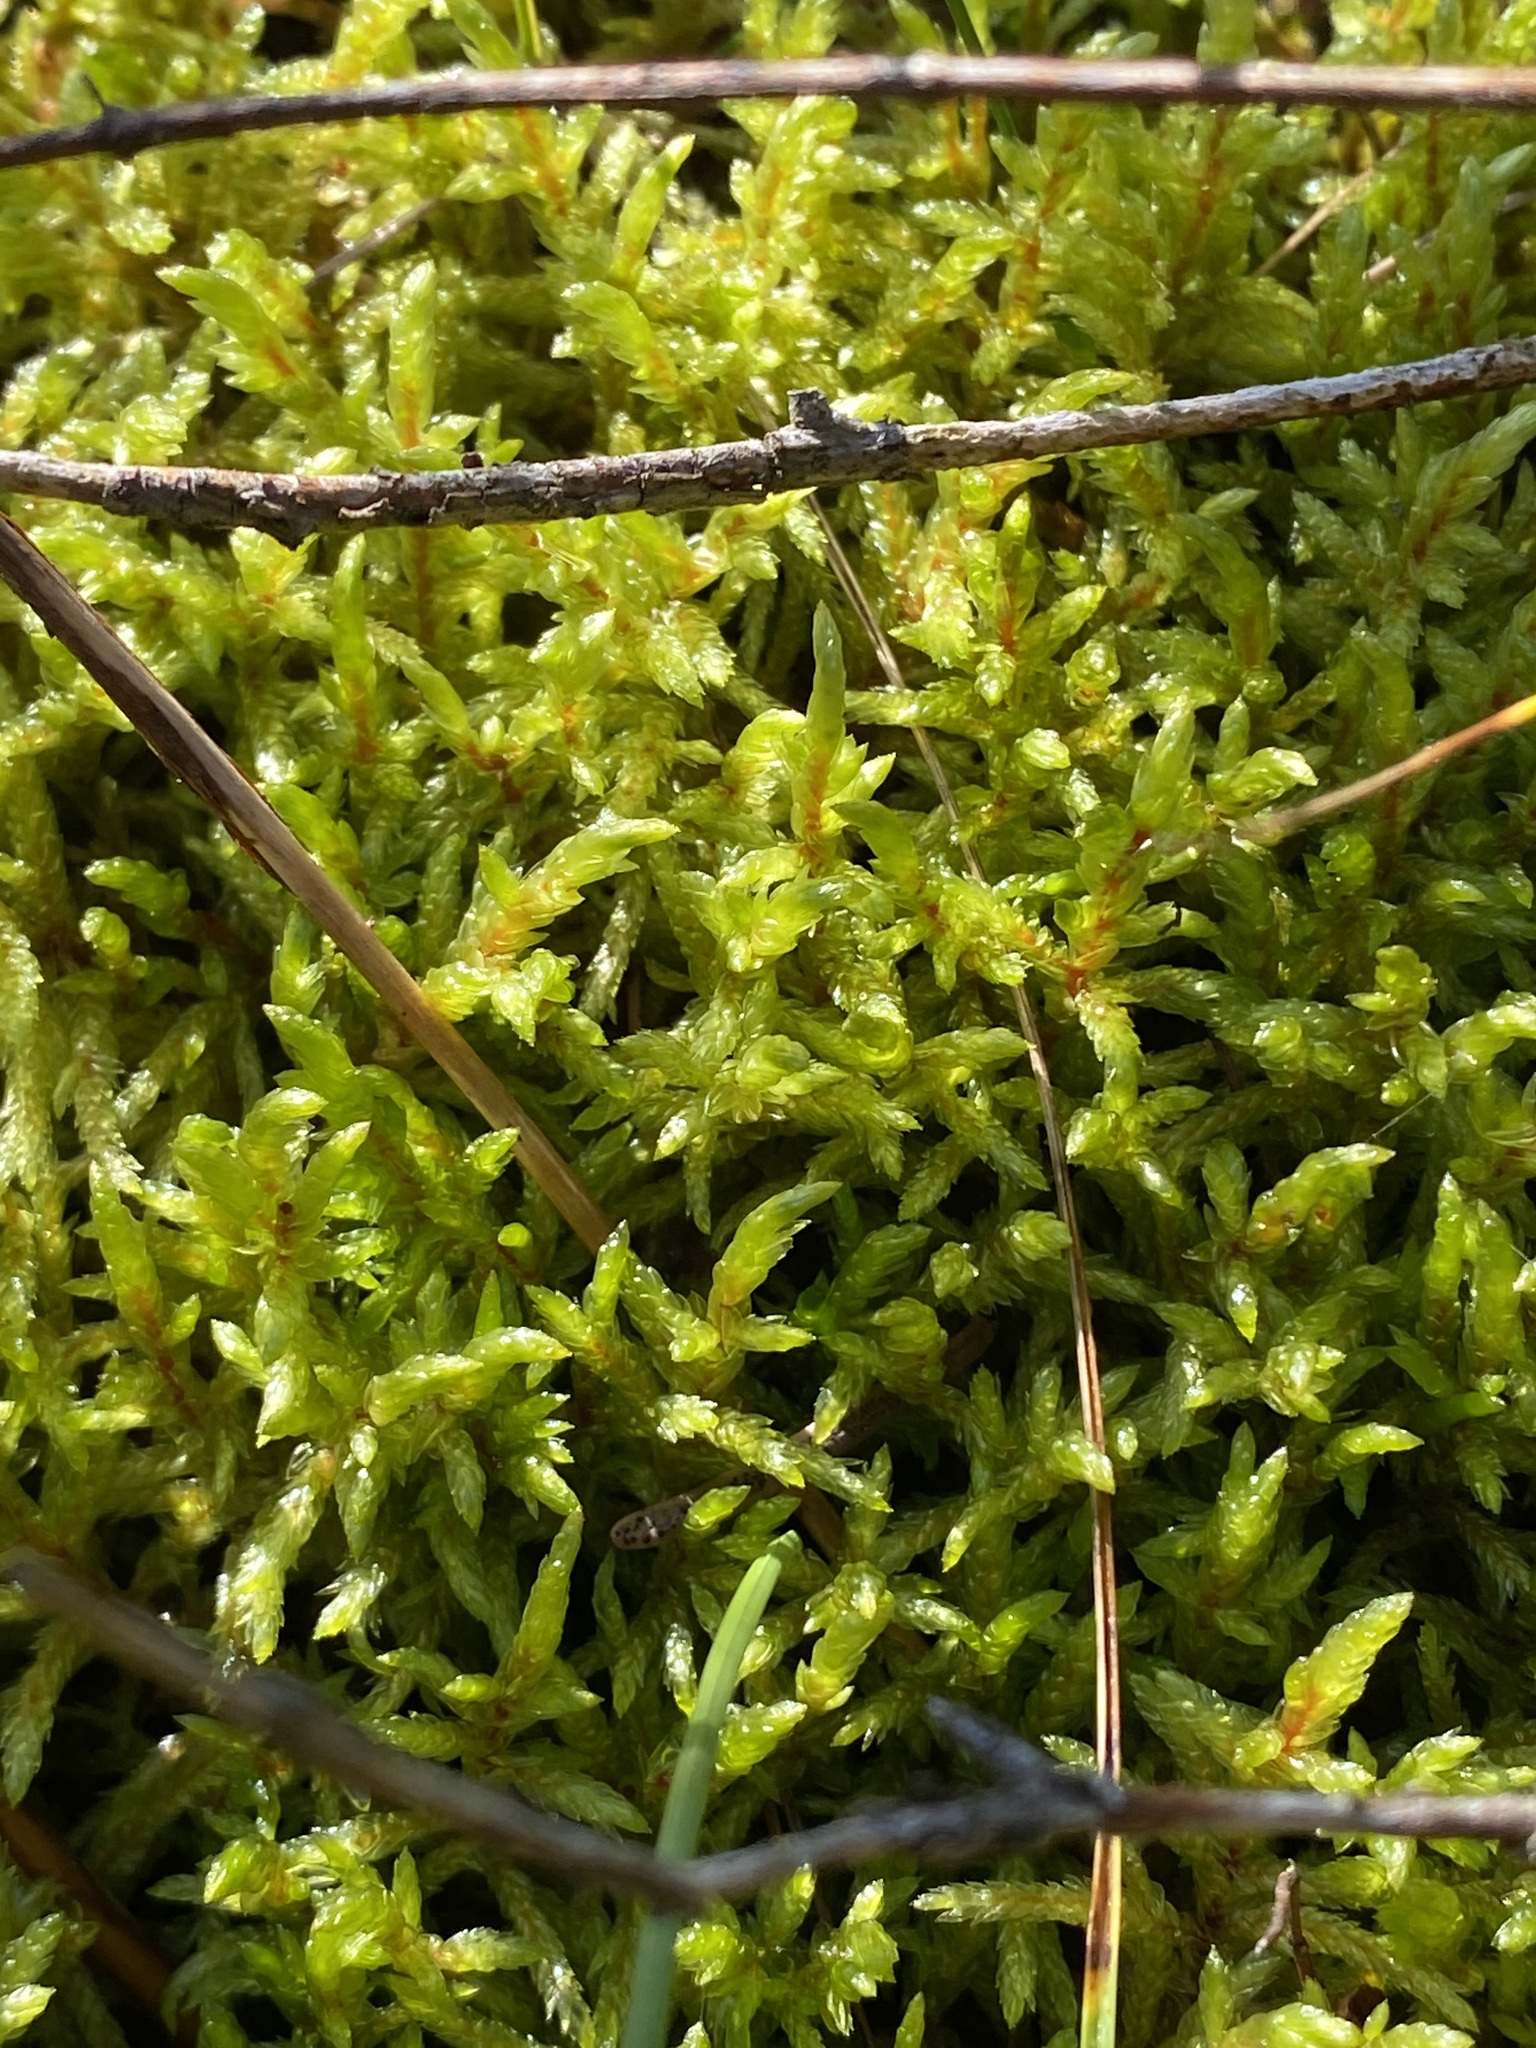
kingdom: Plantae
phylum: Bryophyta
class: Bryopsida
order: Hypnales
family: Hylocomiaceae
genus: Pleurozium
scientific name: Pleurozium schreberi
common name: Red-stemmed feather moss
